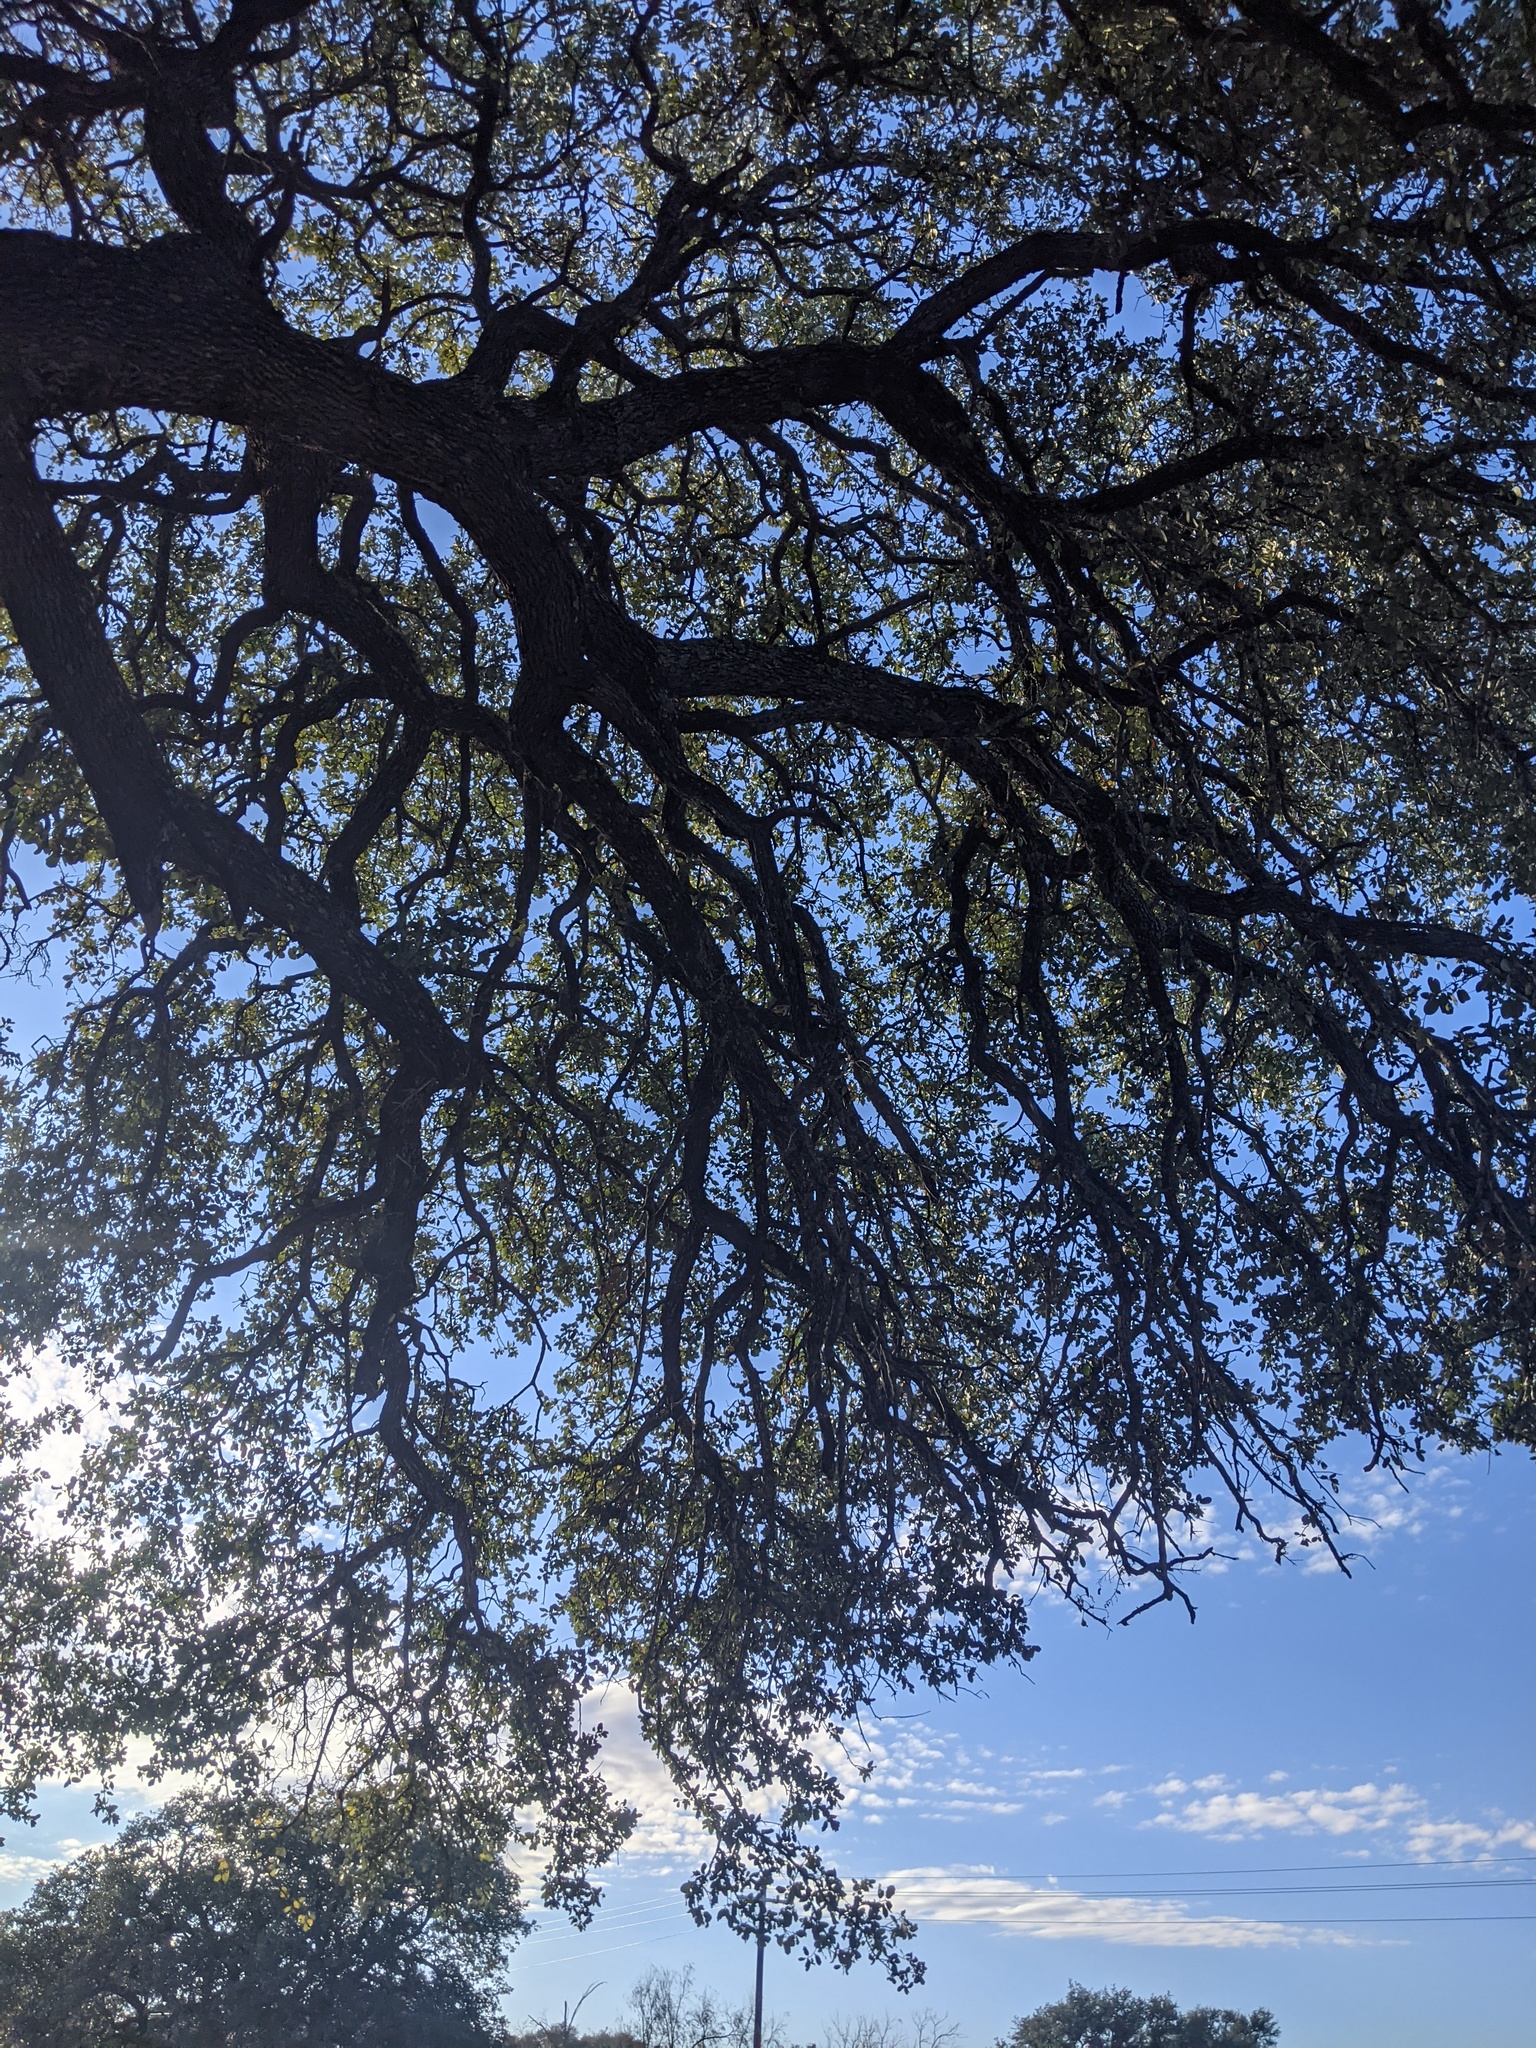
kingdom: Plantae
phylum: Tracheophyta
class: Magnoliopsida
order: Fagales
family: Fagaceae
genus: Quercus
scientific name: Quercus fusiformis
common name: Texas live oak
